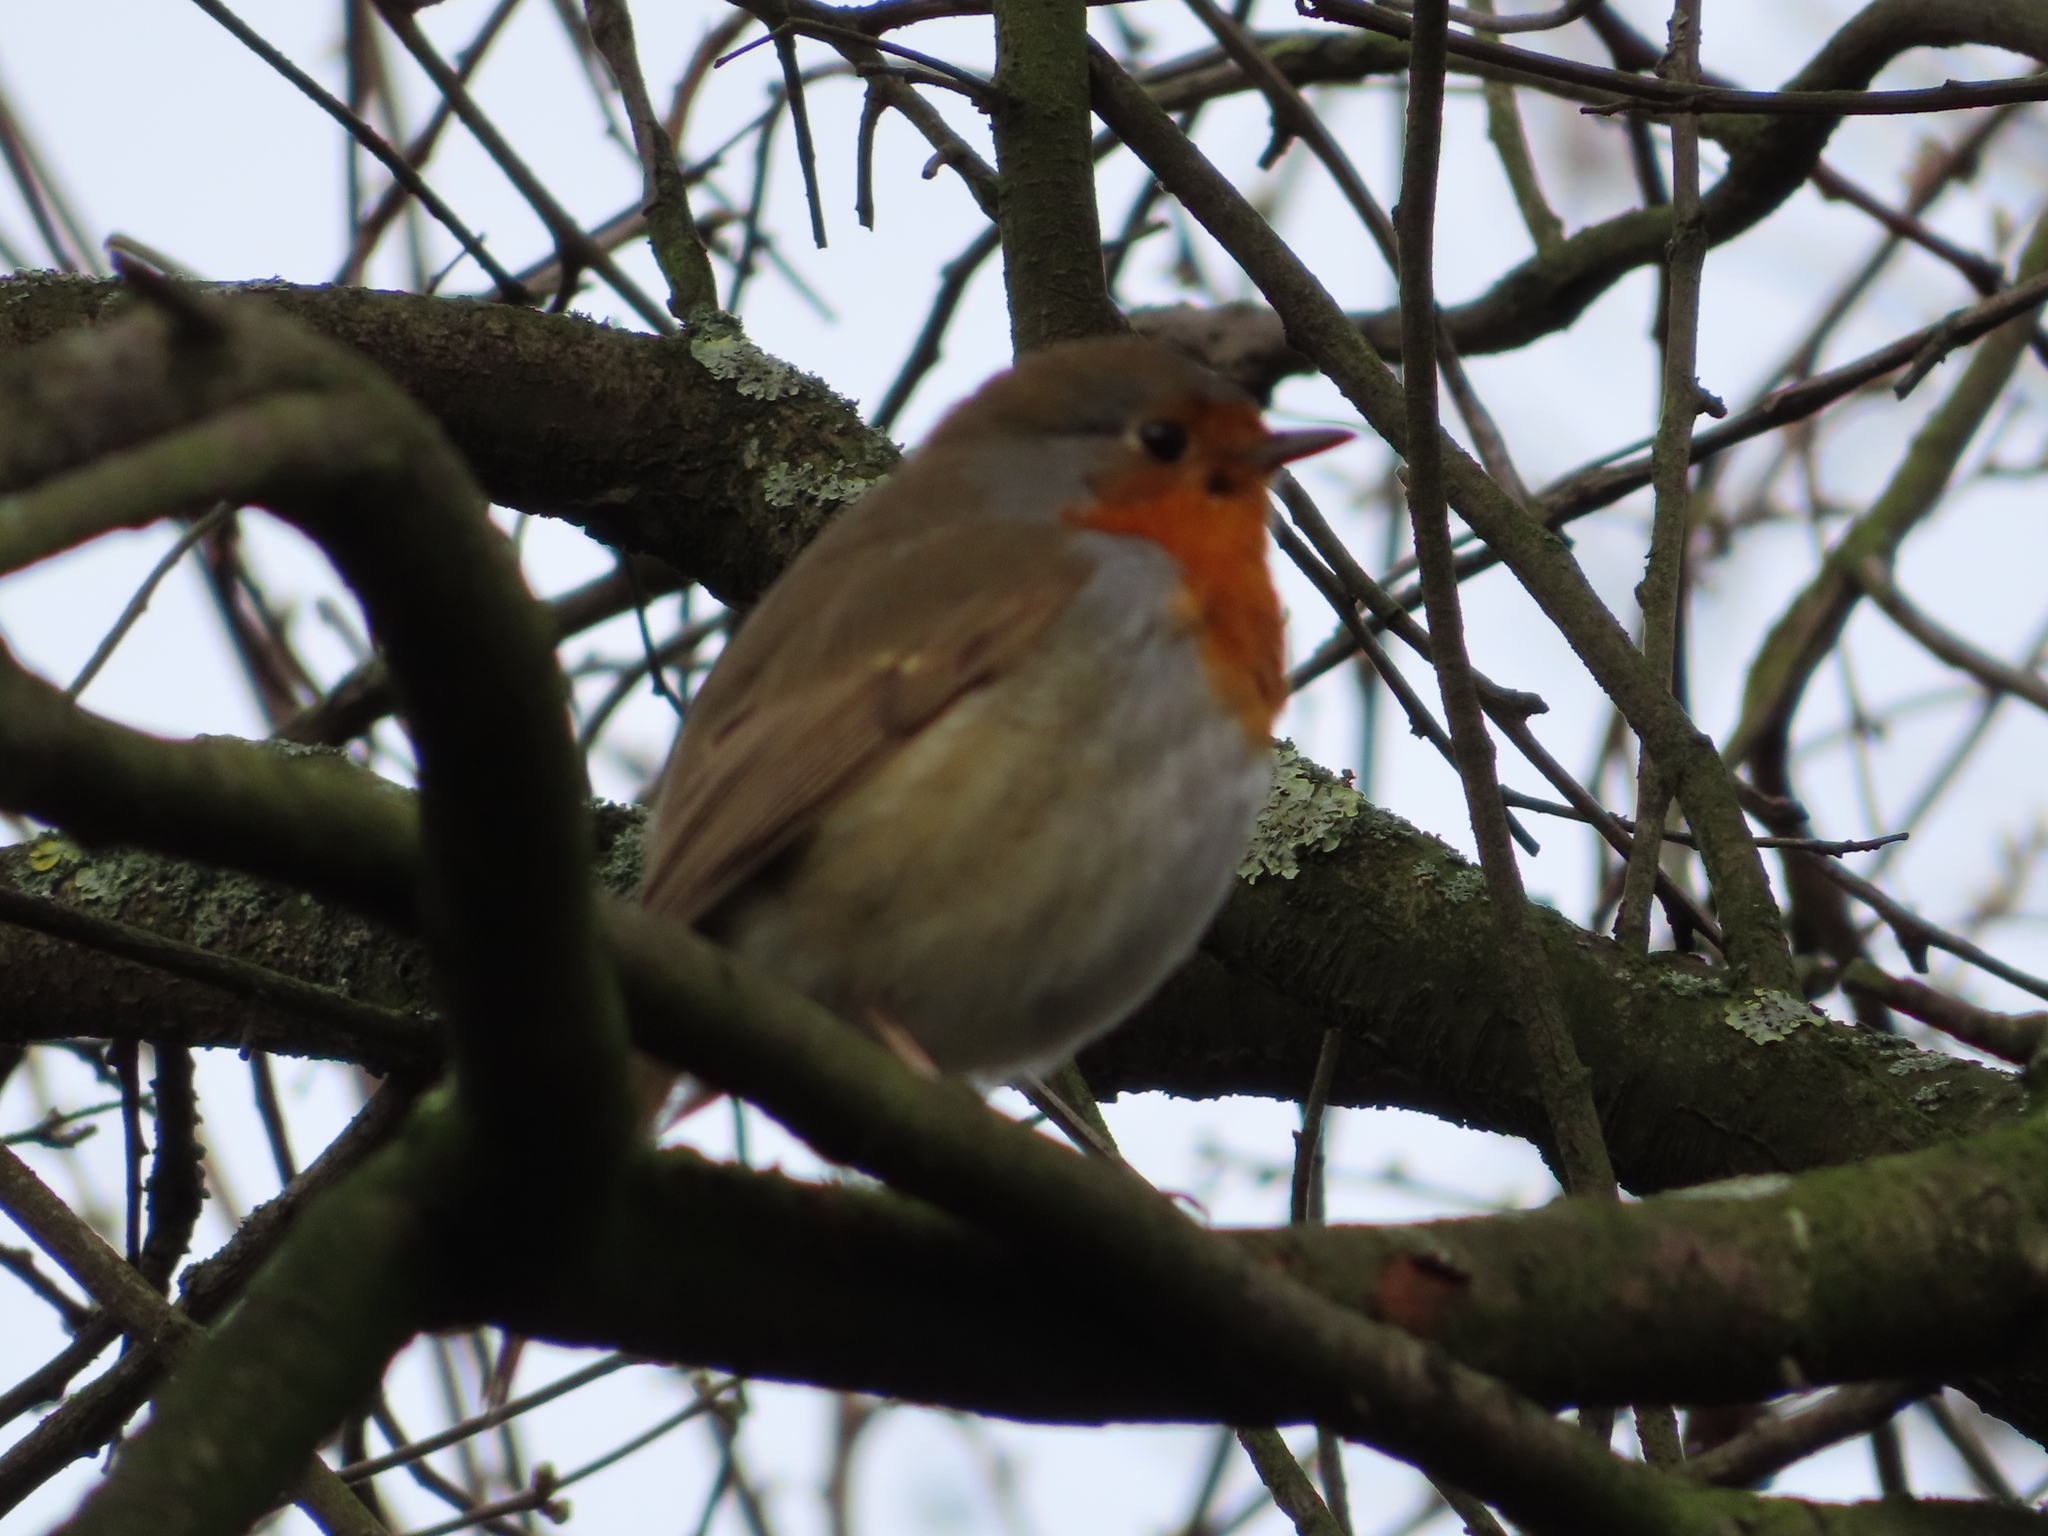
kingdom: Animalia
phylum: Chordata
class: Aves
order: Passeriformes
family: Muscicapidae
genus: Erithacus
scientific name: Erithacus rubecula
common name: European robin
